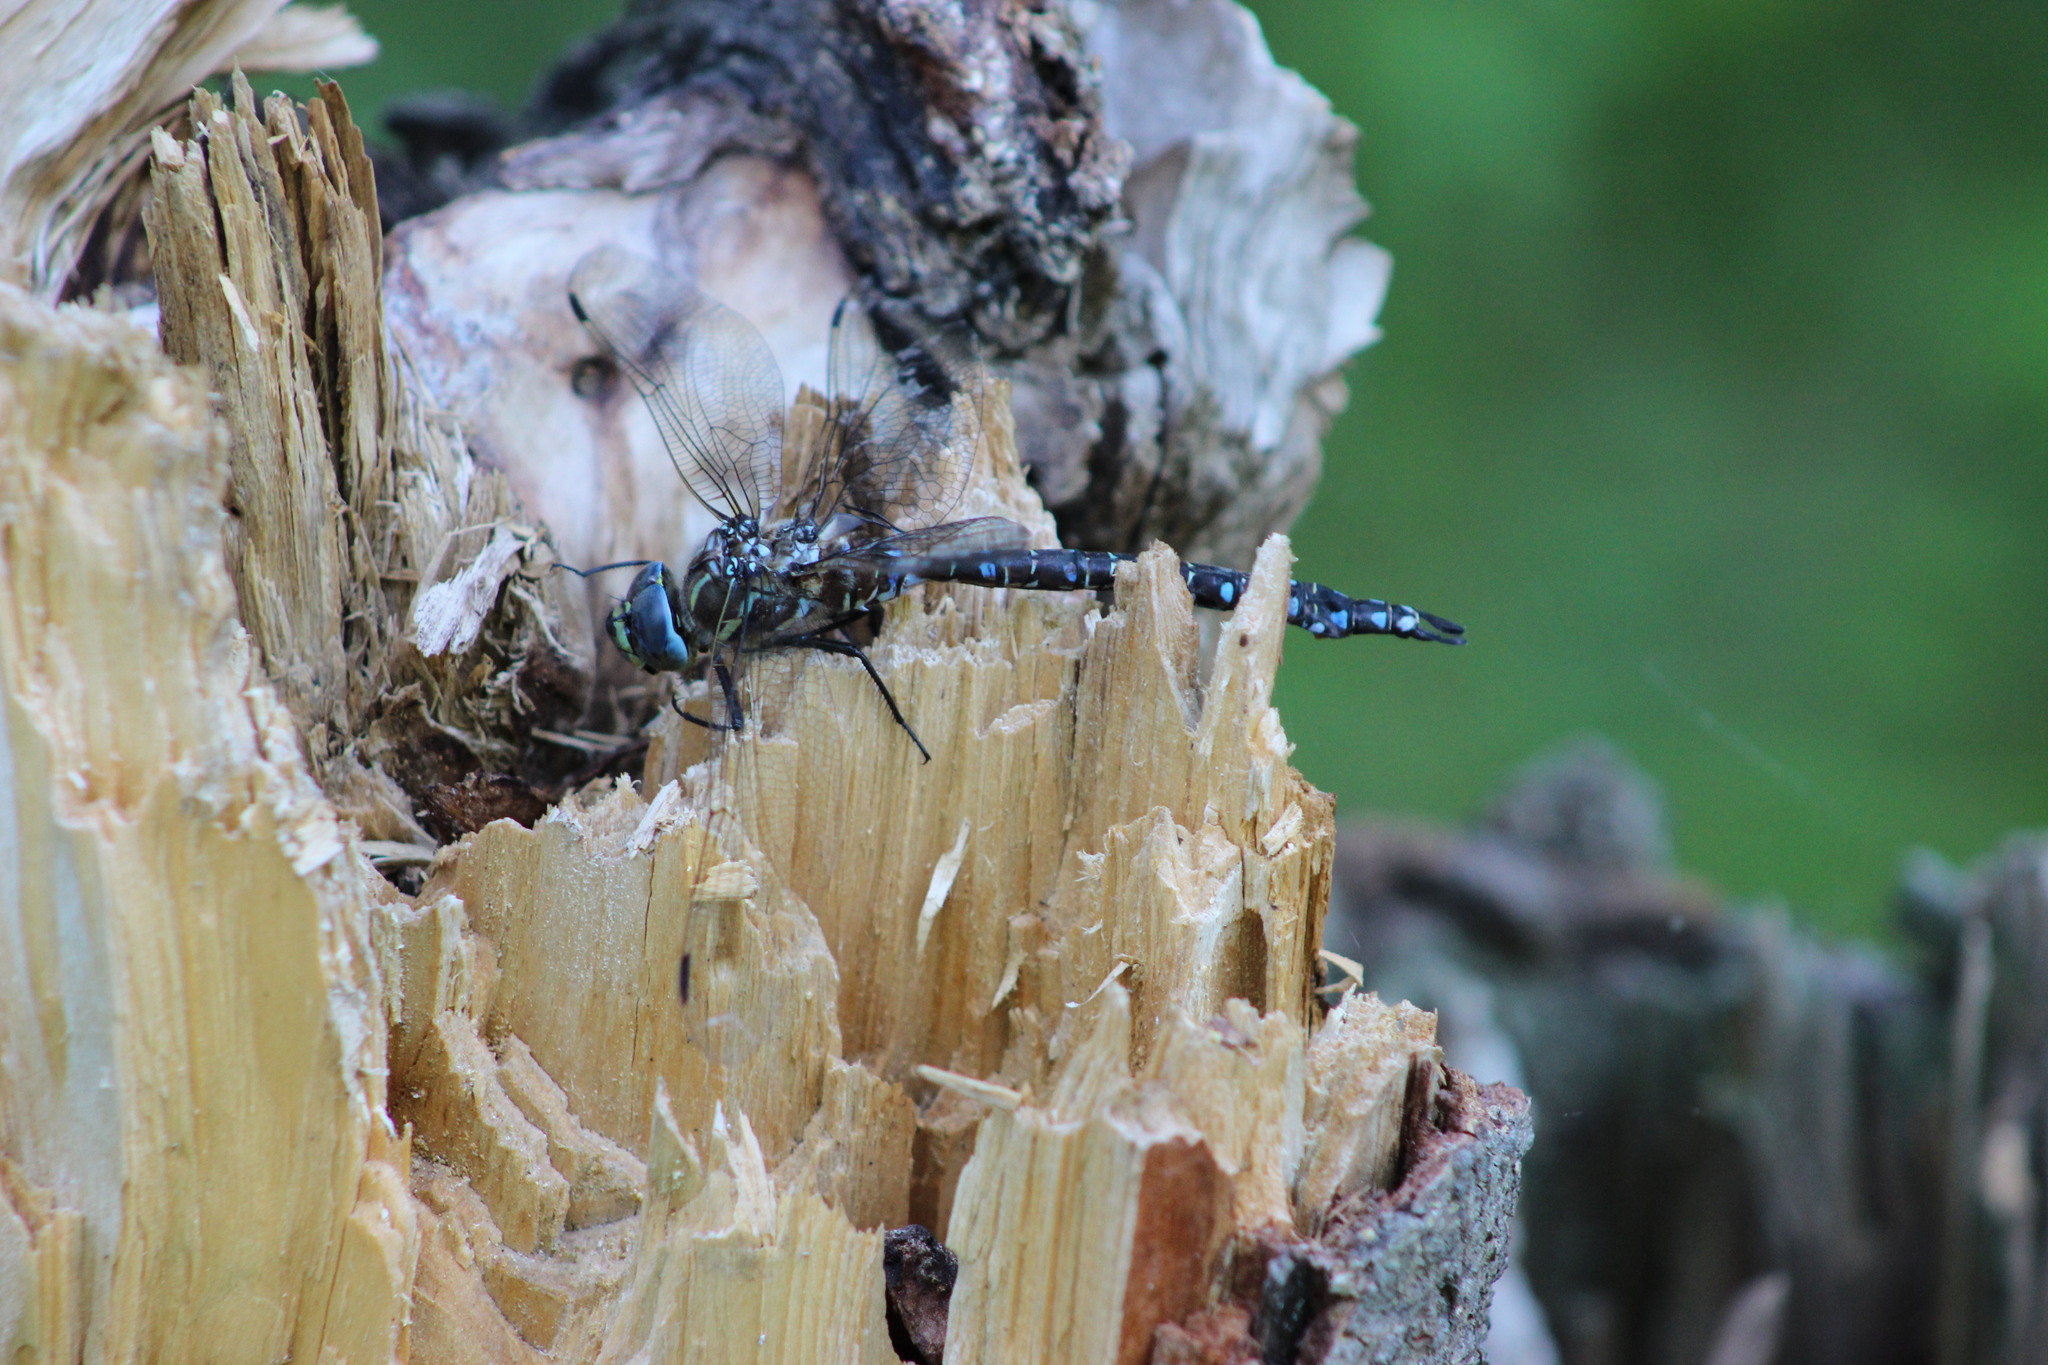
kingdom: Animalia
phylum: Arthropoda
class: Insecta
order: Odonata
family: Aeshnidae
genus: Aeshna
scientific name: Aeshna juncea
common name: Moorland hawker
